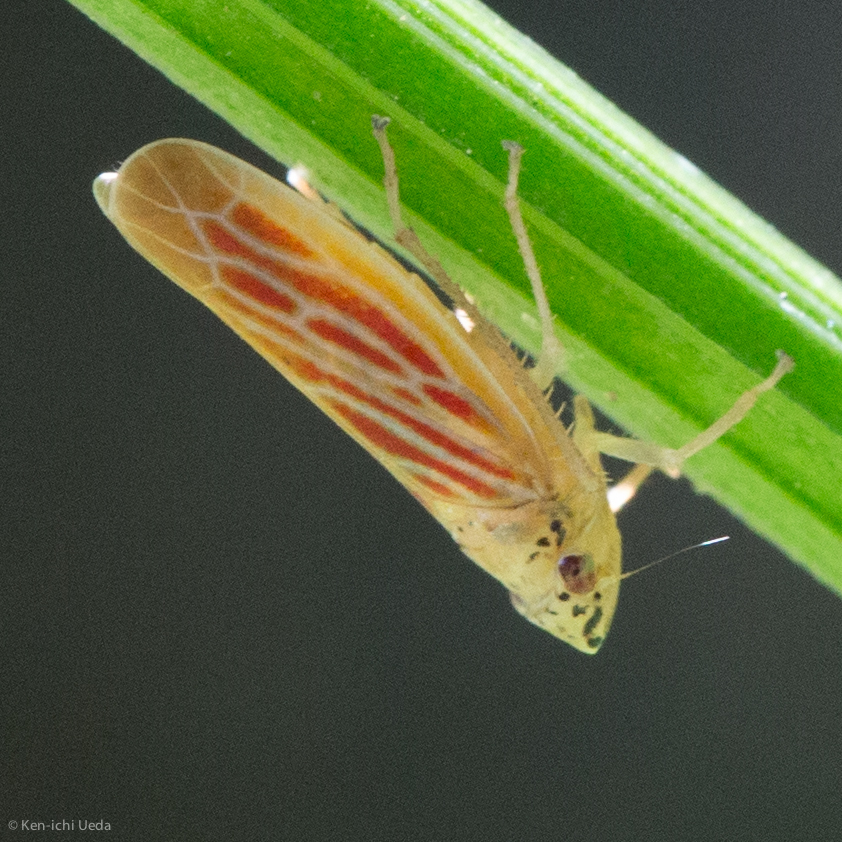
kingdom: Animalia
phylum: Arthropoda
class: Insecta
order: Hemiptera
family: Cicadellidae
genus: Pagaronia
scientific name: Pagaronia triunata
